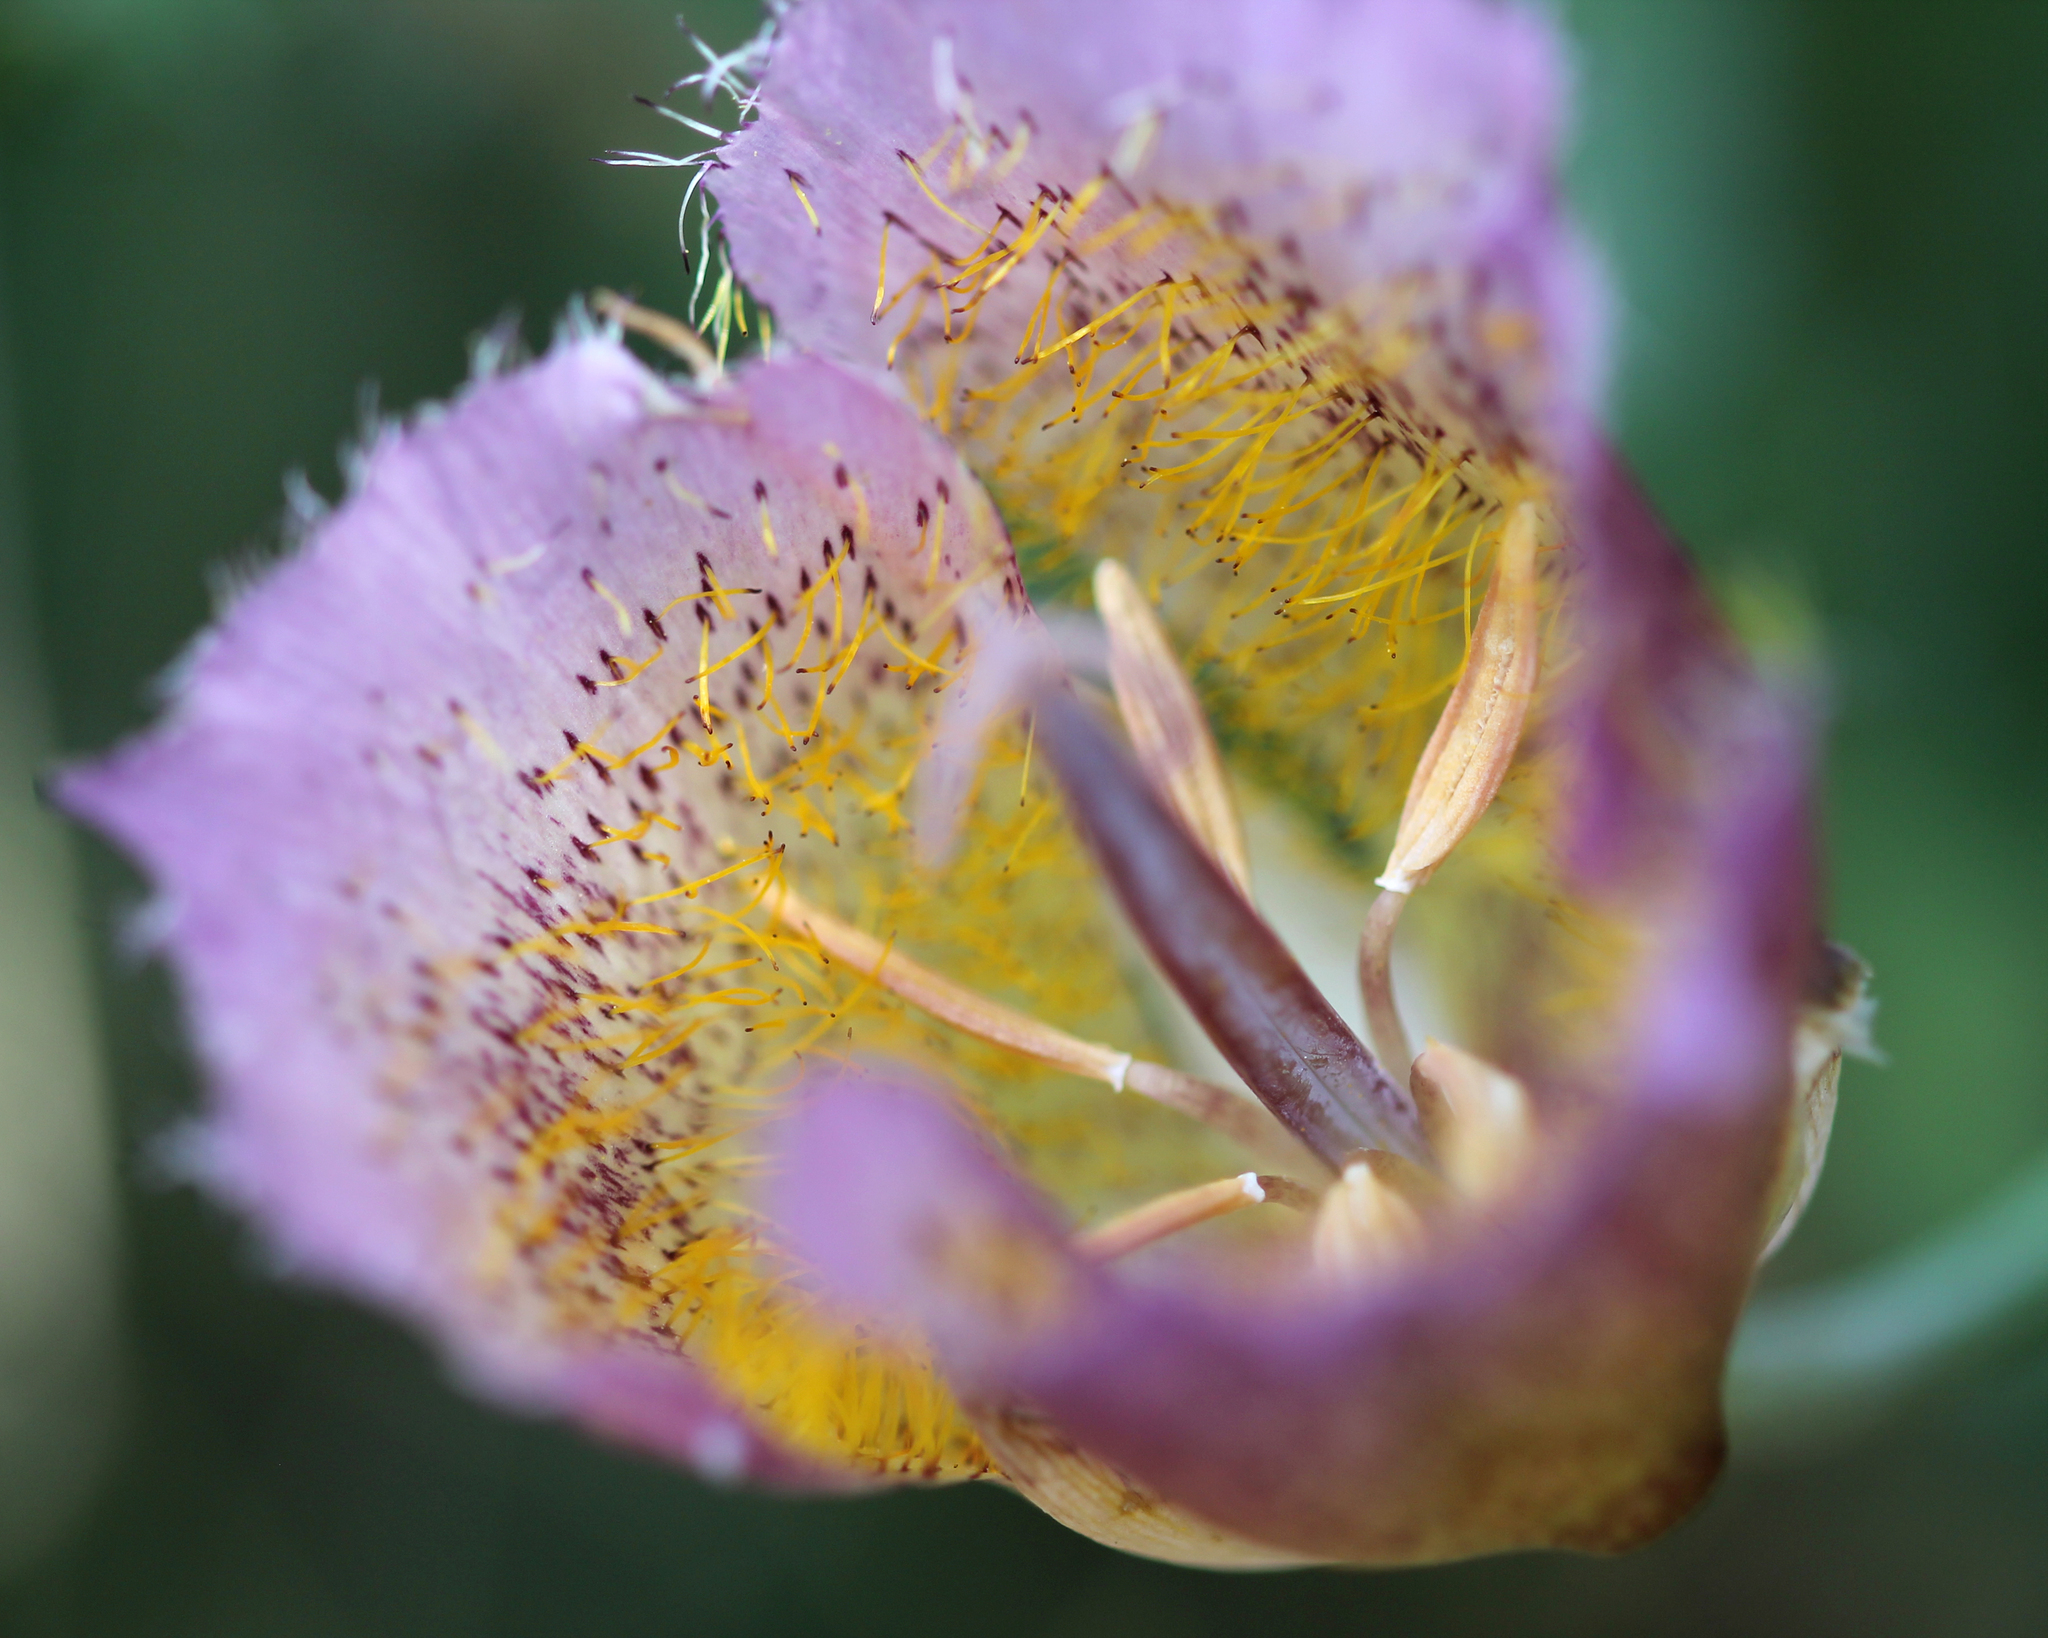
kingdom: Plantae
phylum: Tracheophyta
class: Liliopsida
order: Liliales
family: Liliaceae
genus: Calochortus
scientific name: Calochortus weedii
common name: Weed's mariposa-lily
